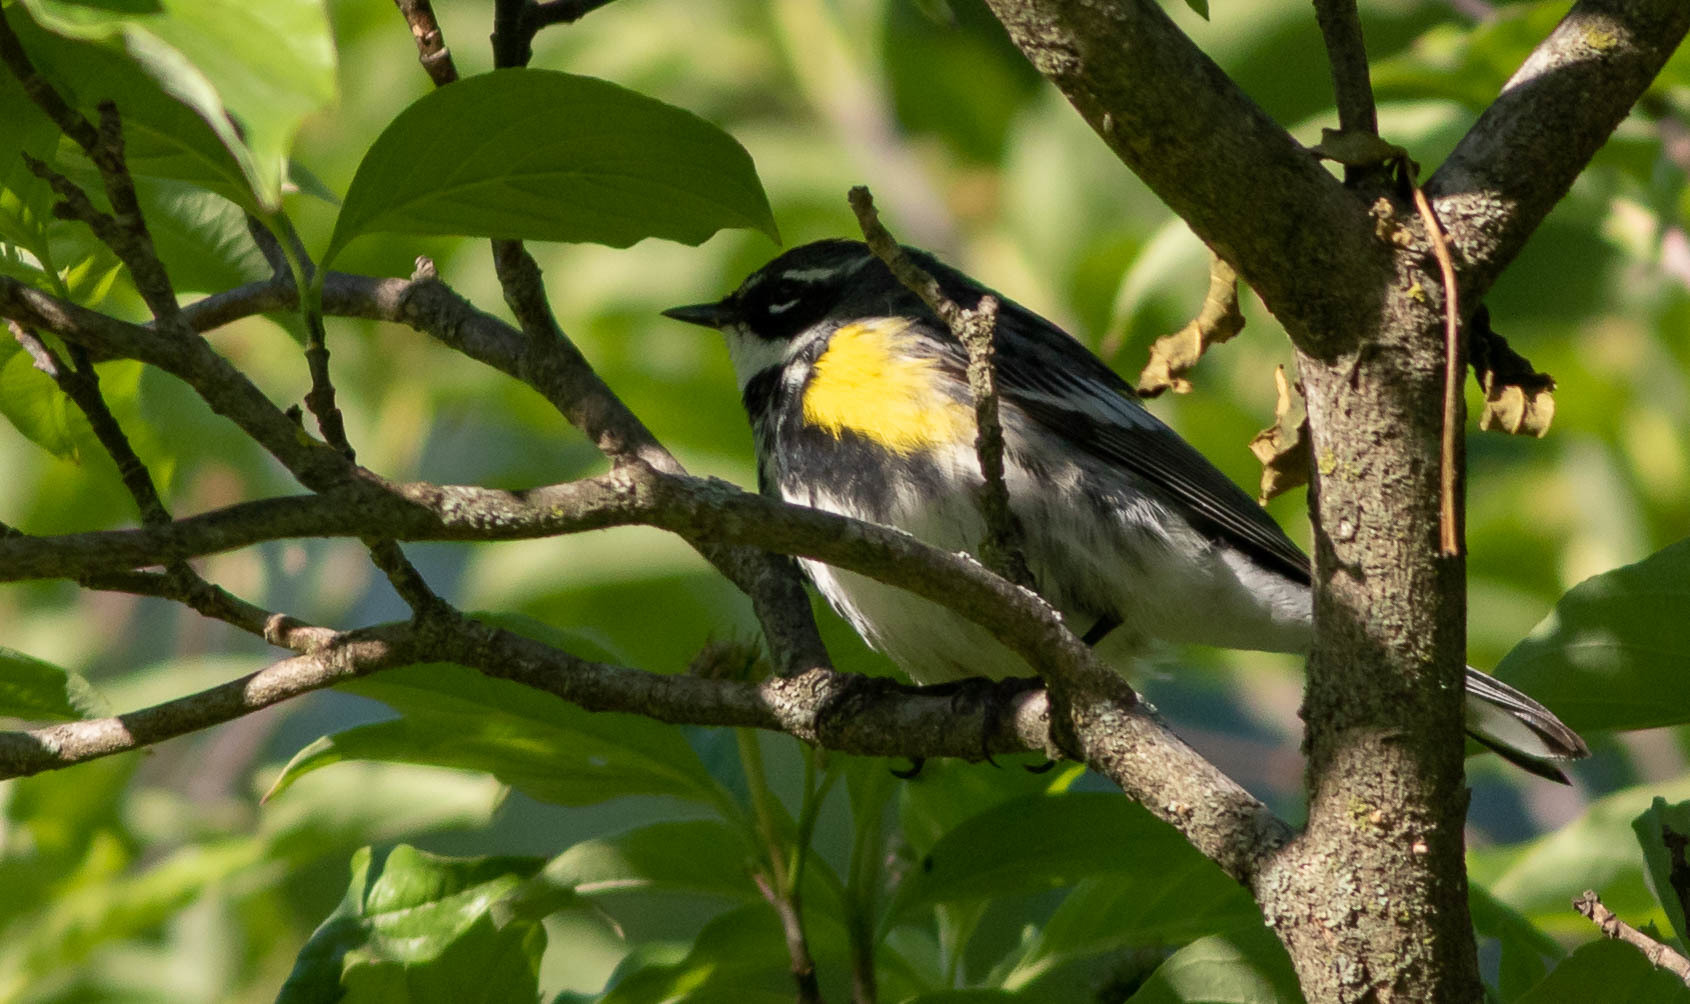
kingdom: Animalia
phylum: Chordata
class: Aves
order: Passeriformes
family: Parulidae
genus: Setophaga
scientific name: Setophaga coronata
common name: Myrtle warbler
